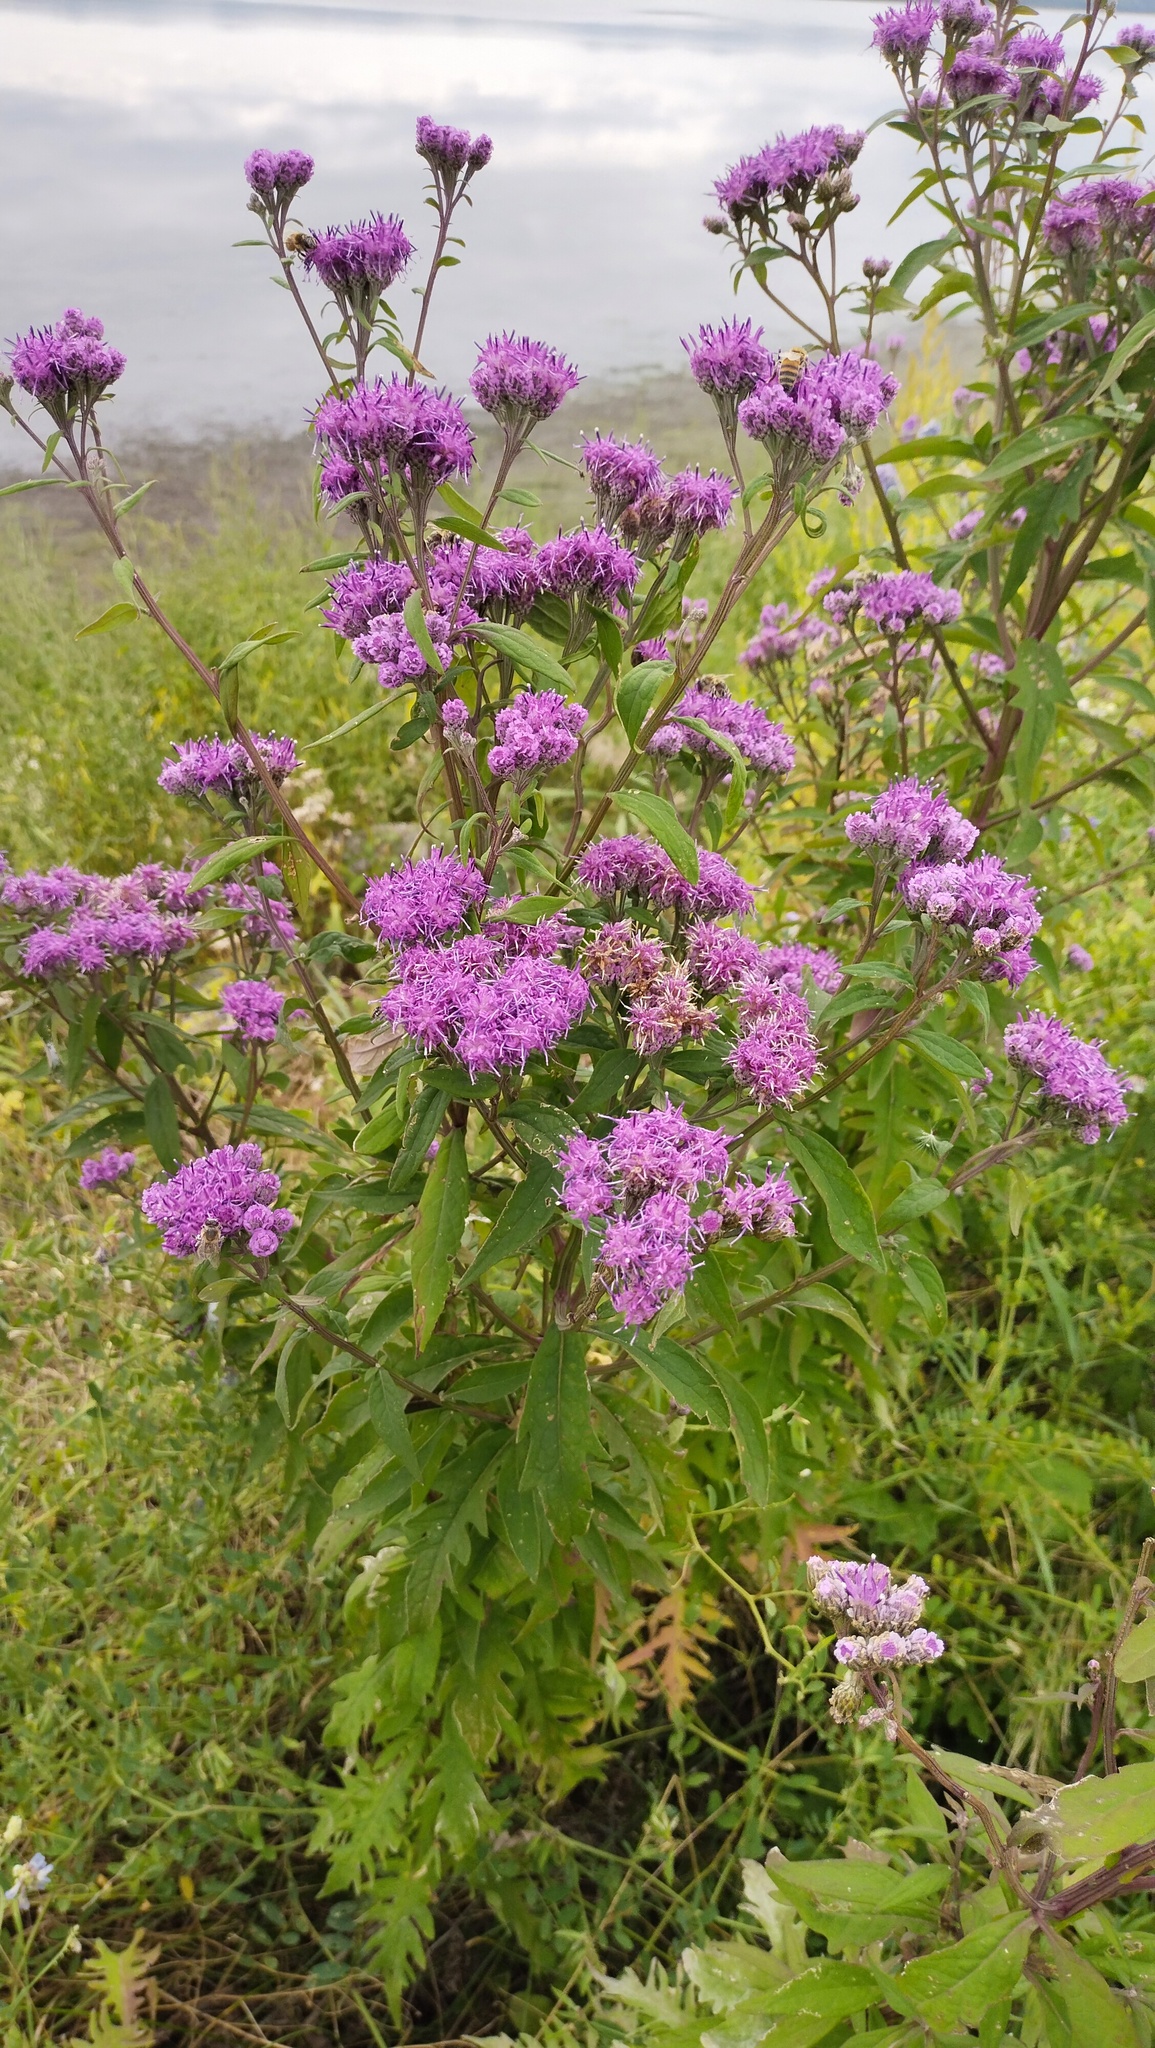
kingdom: Plantae
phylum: Tracheophyta
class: Magnoliopsida
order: Asterales
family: Asteraceae
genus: Saussurea
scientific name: Saussurea pulchella
